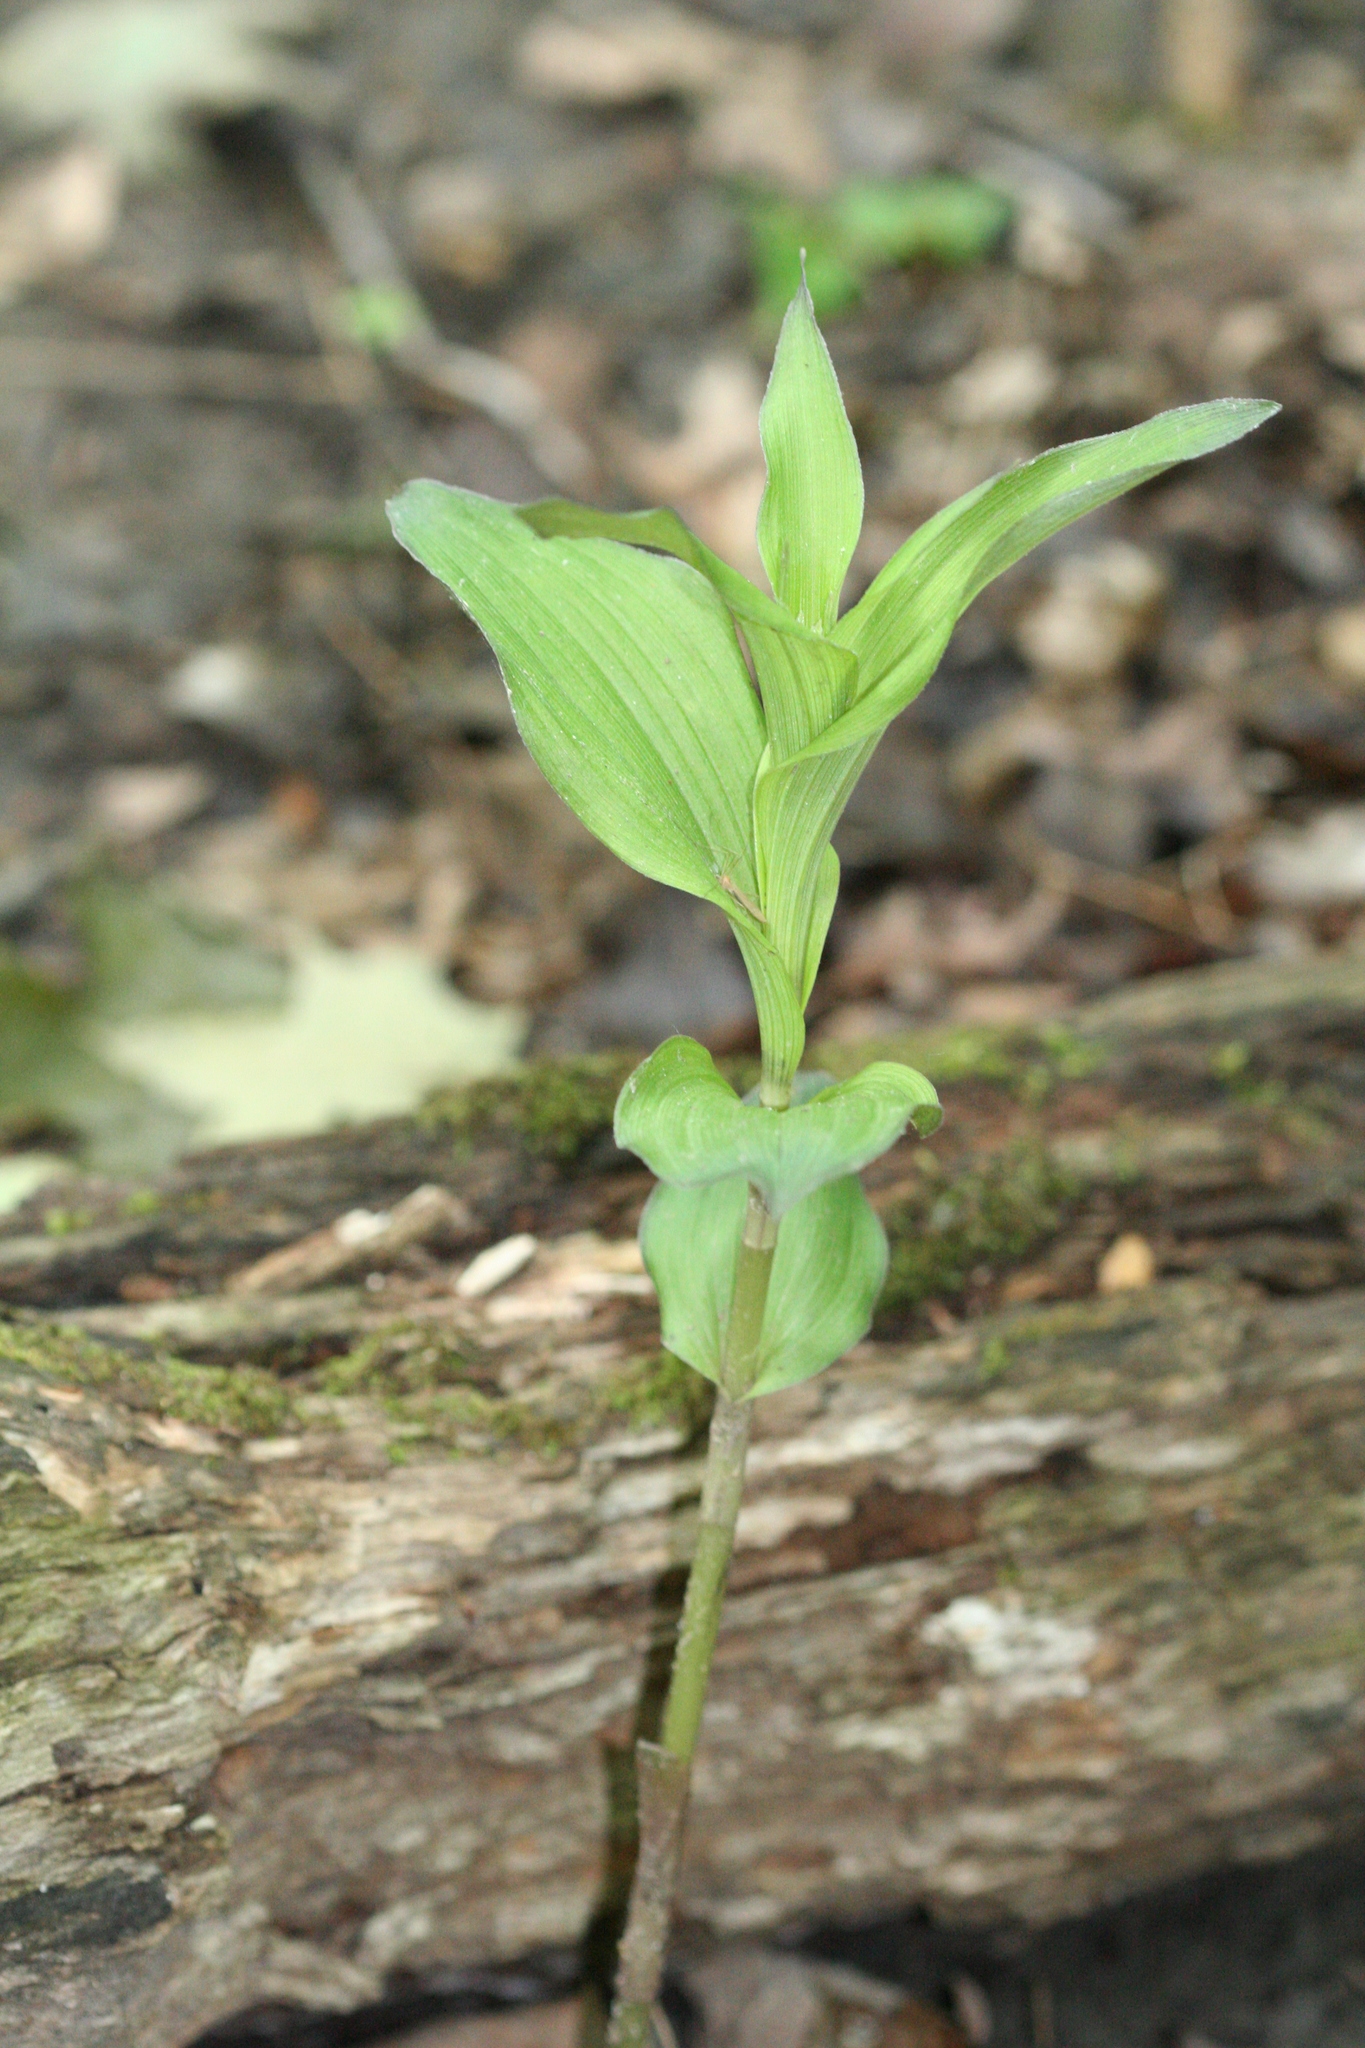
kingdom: Plantae
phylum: Tracheophyta
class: Liliopsida
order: Asparagales
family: Orchidaceae
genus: Epipactis
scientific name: Epipactis helleborine
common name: Broad-leaved helleborine
